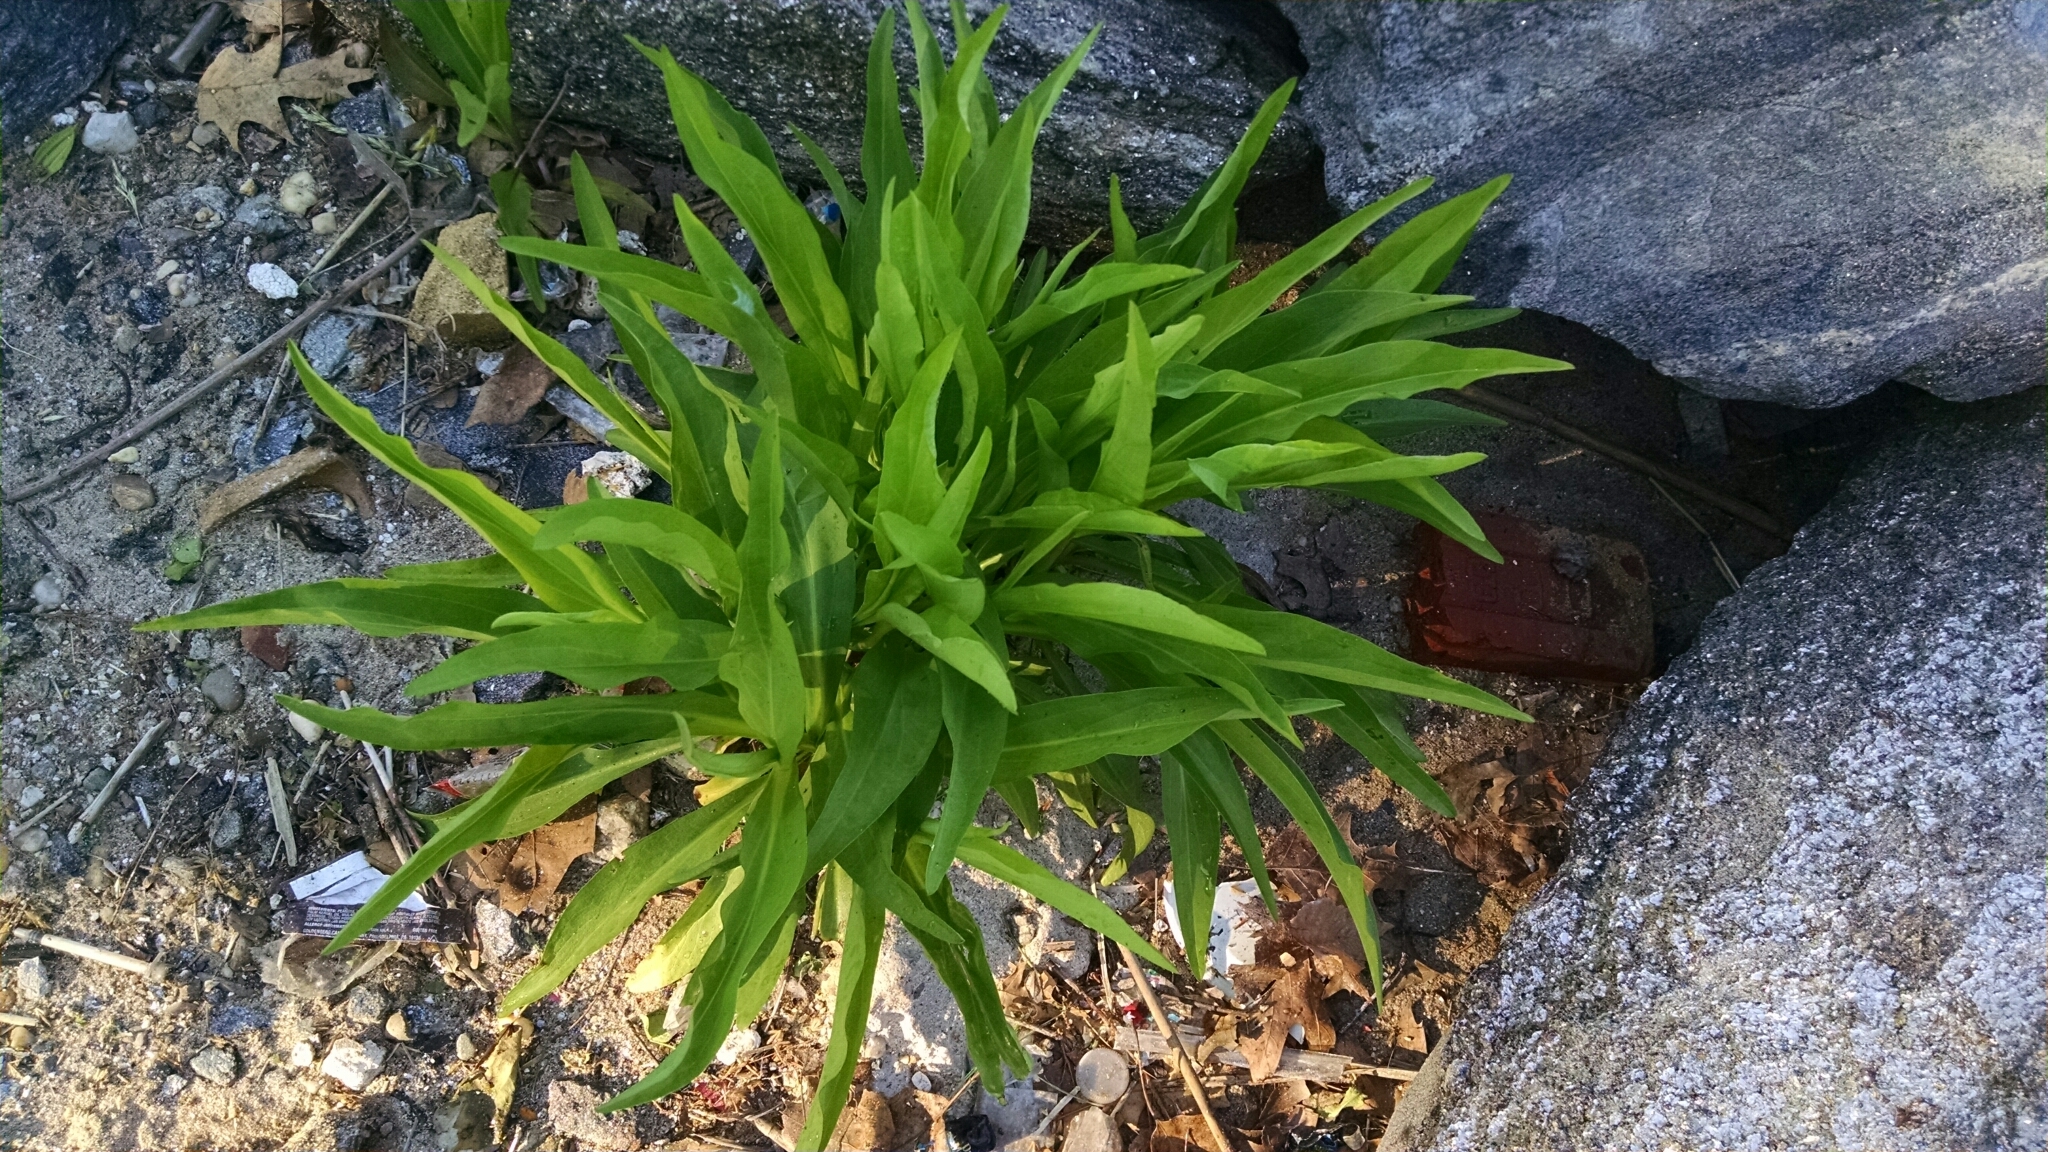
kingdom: Plantae
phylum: Tracheophyta
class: Magnoliopsida
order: Asterales
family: Asteraceae
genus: Solidago
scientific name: Solidago sempervirens
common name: Salt-marsh goldenrod
